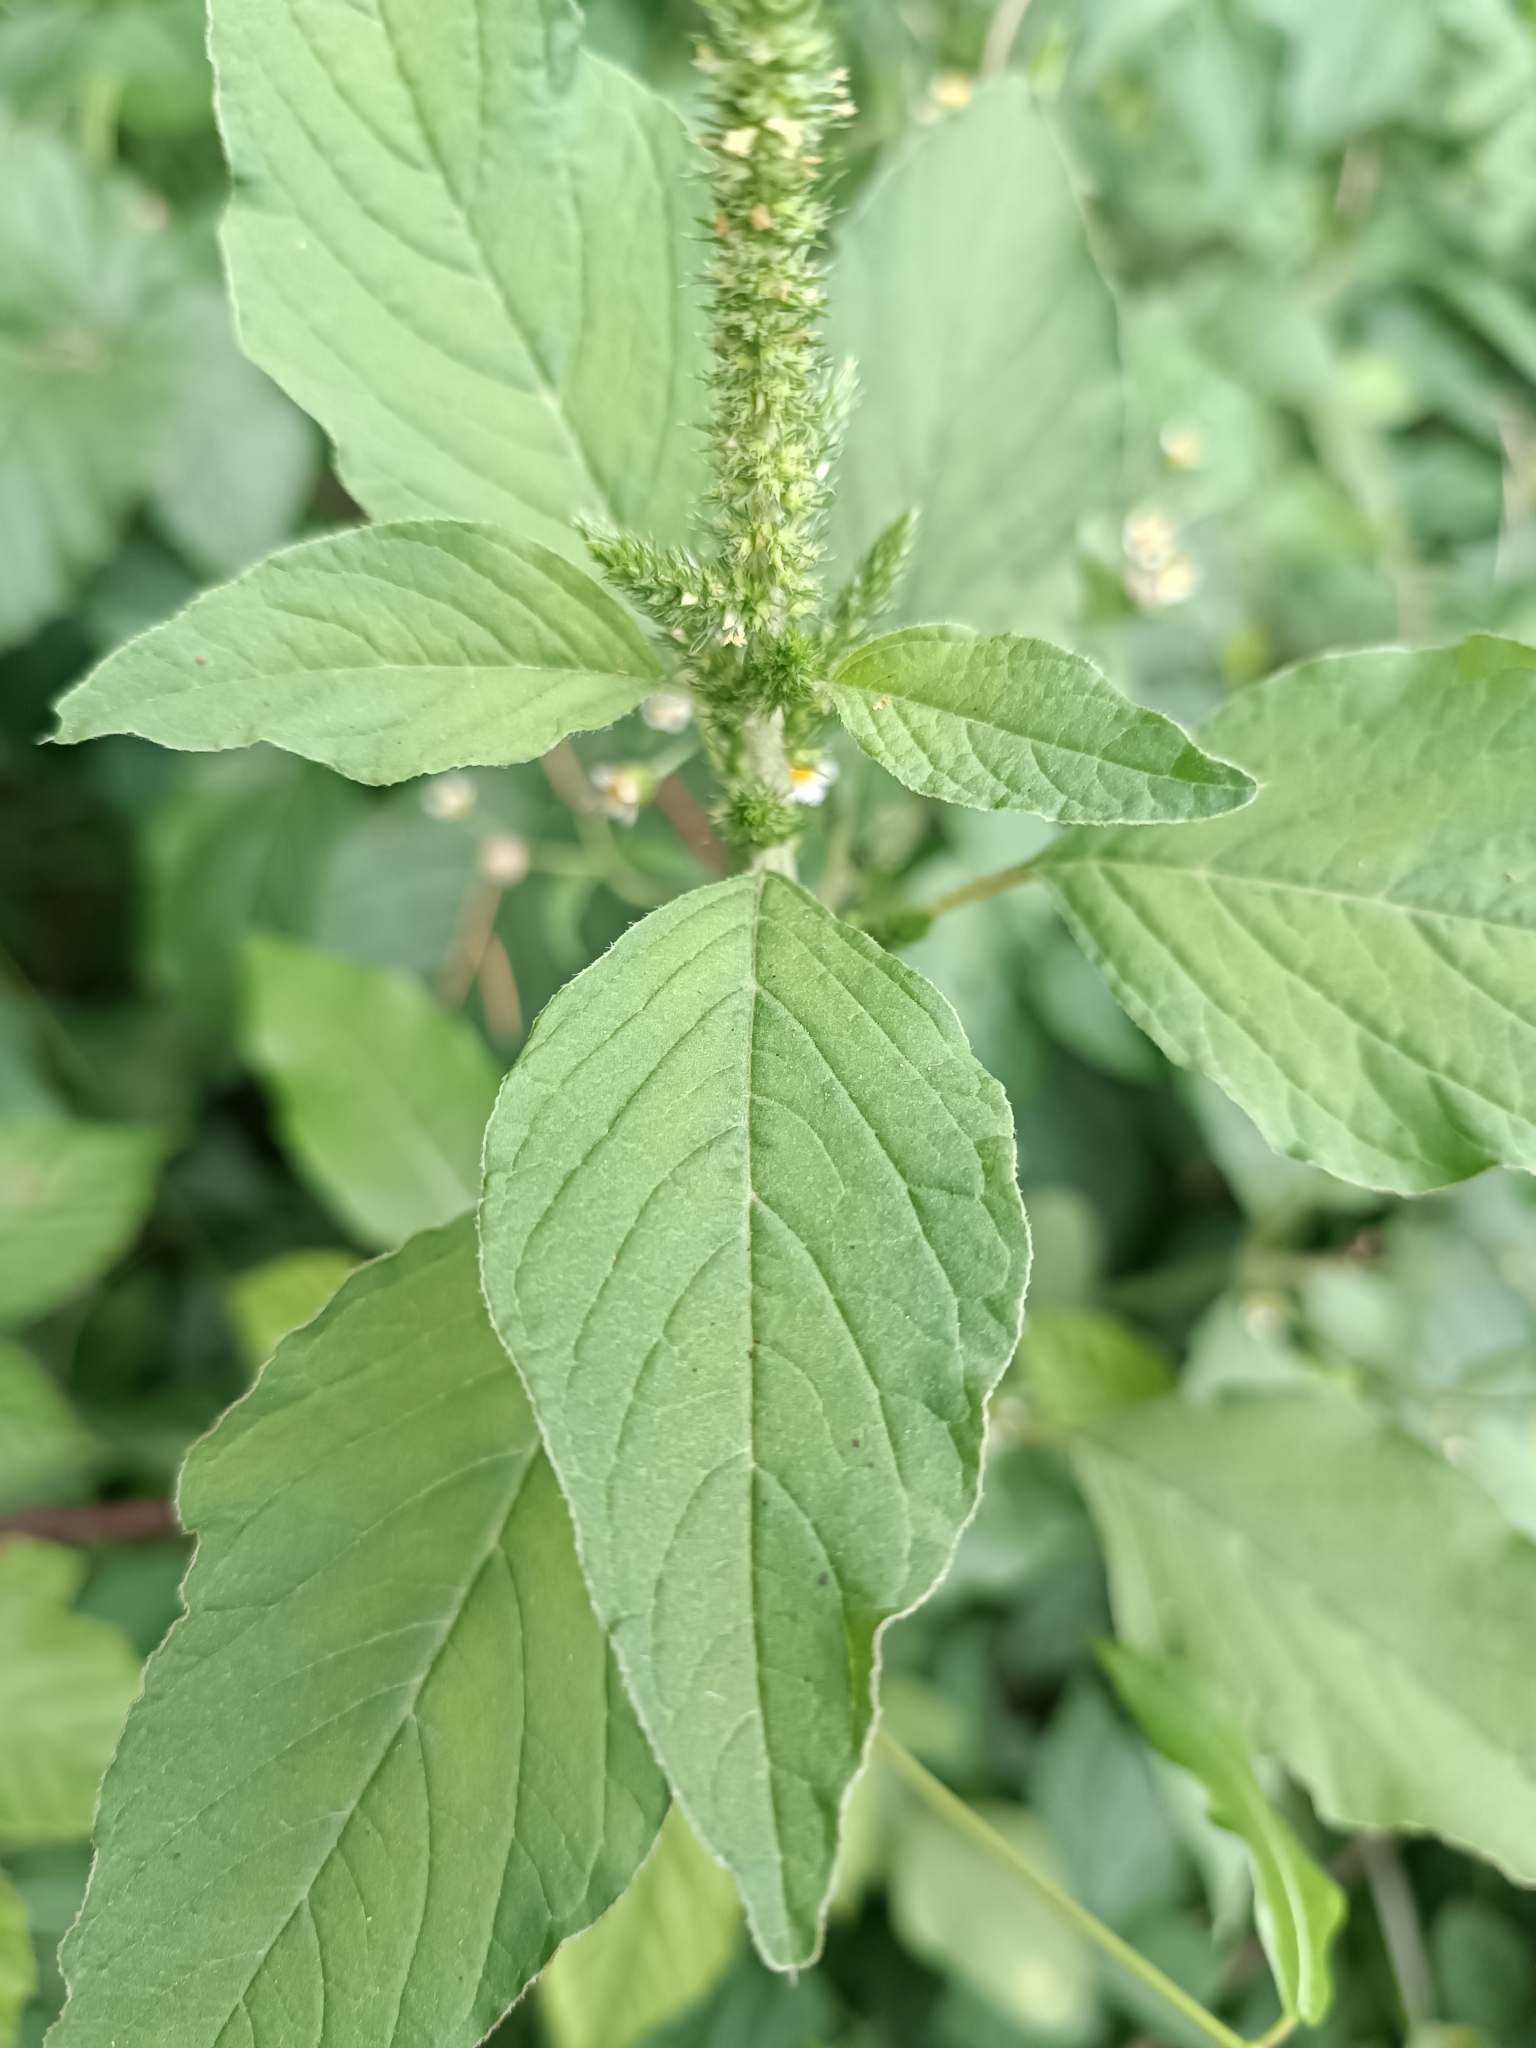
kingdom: Plantae
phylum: Tracheophyta
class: Magnoliopsida
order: Caryophyllales
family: Amaranthaceae
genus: Amaranthus
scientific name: Amaranthus retroflexus
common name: Redroot amaranth
